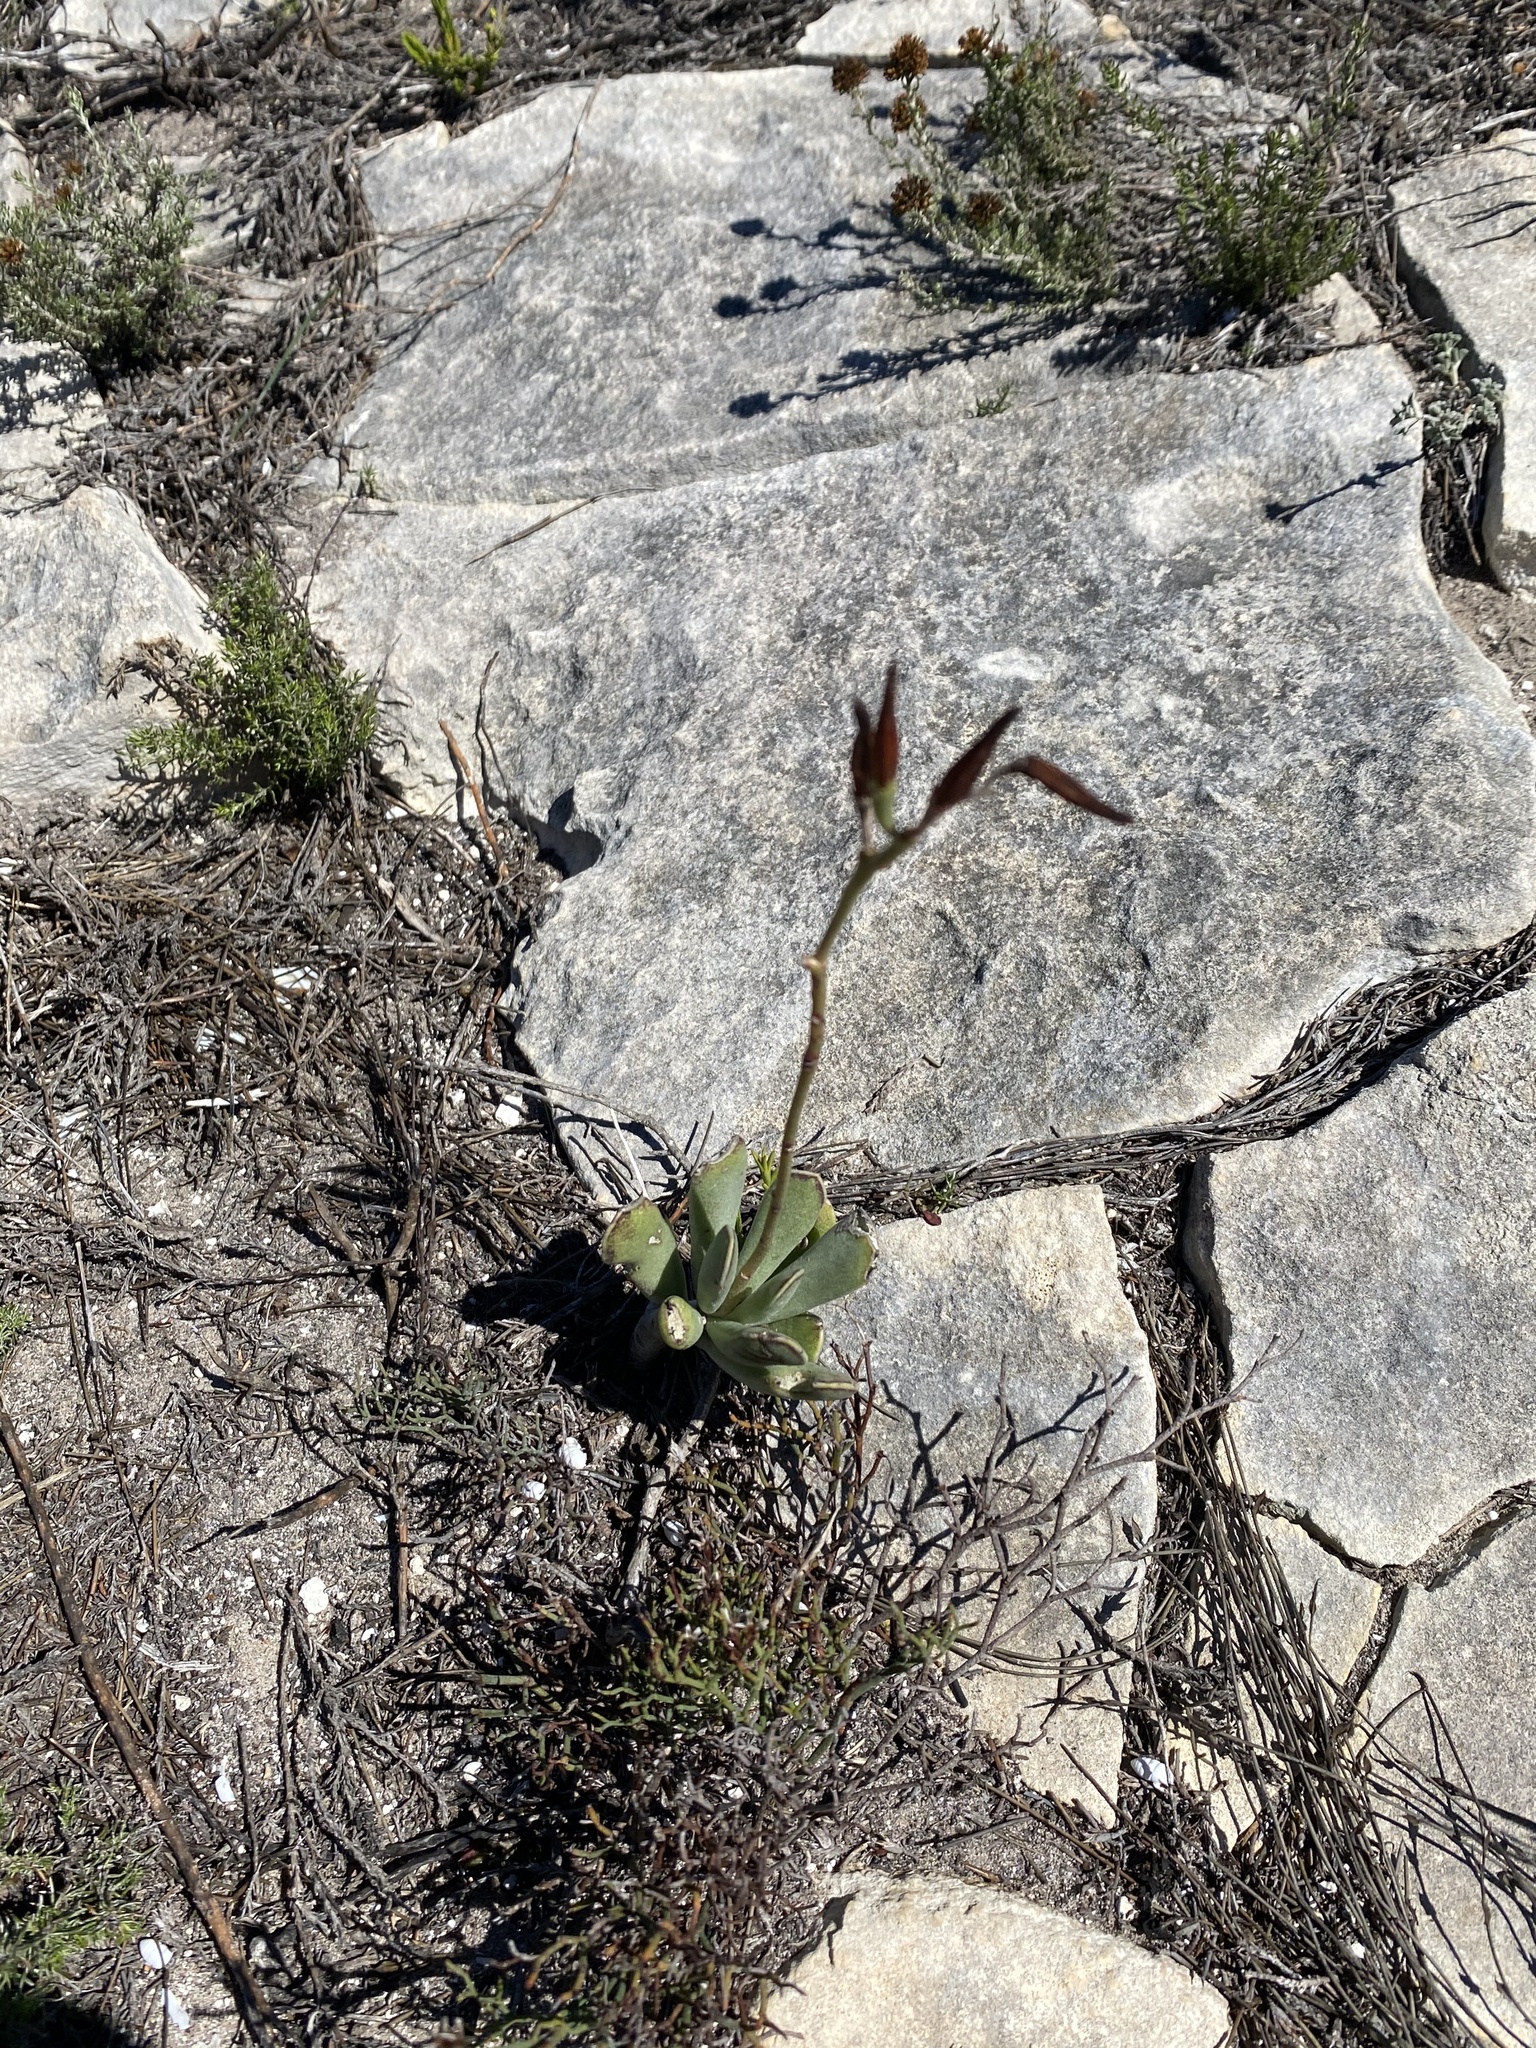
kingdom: Plantae
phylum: Tracheophyta
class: Magnoliopsida
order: Saxifragales
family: Crassulaceae
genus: Adromischus
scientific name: Adromischus caryophyllaceus
